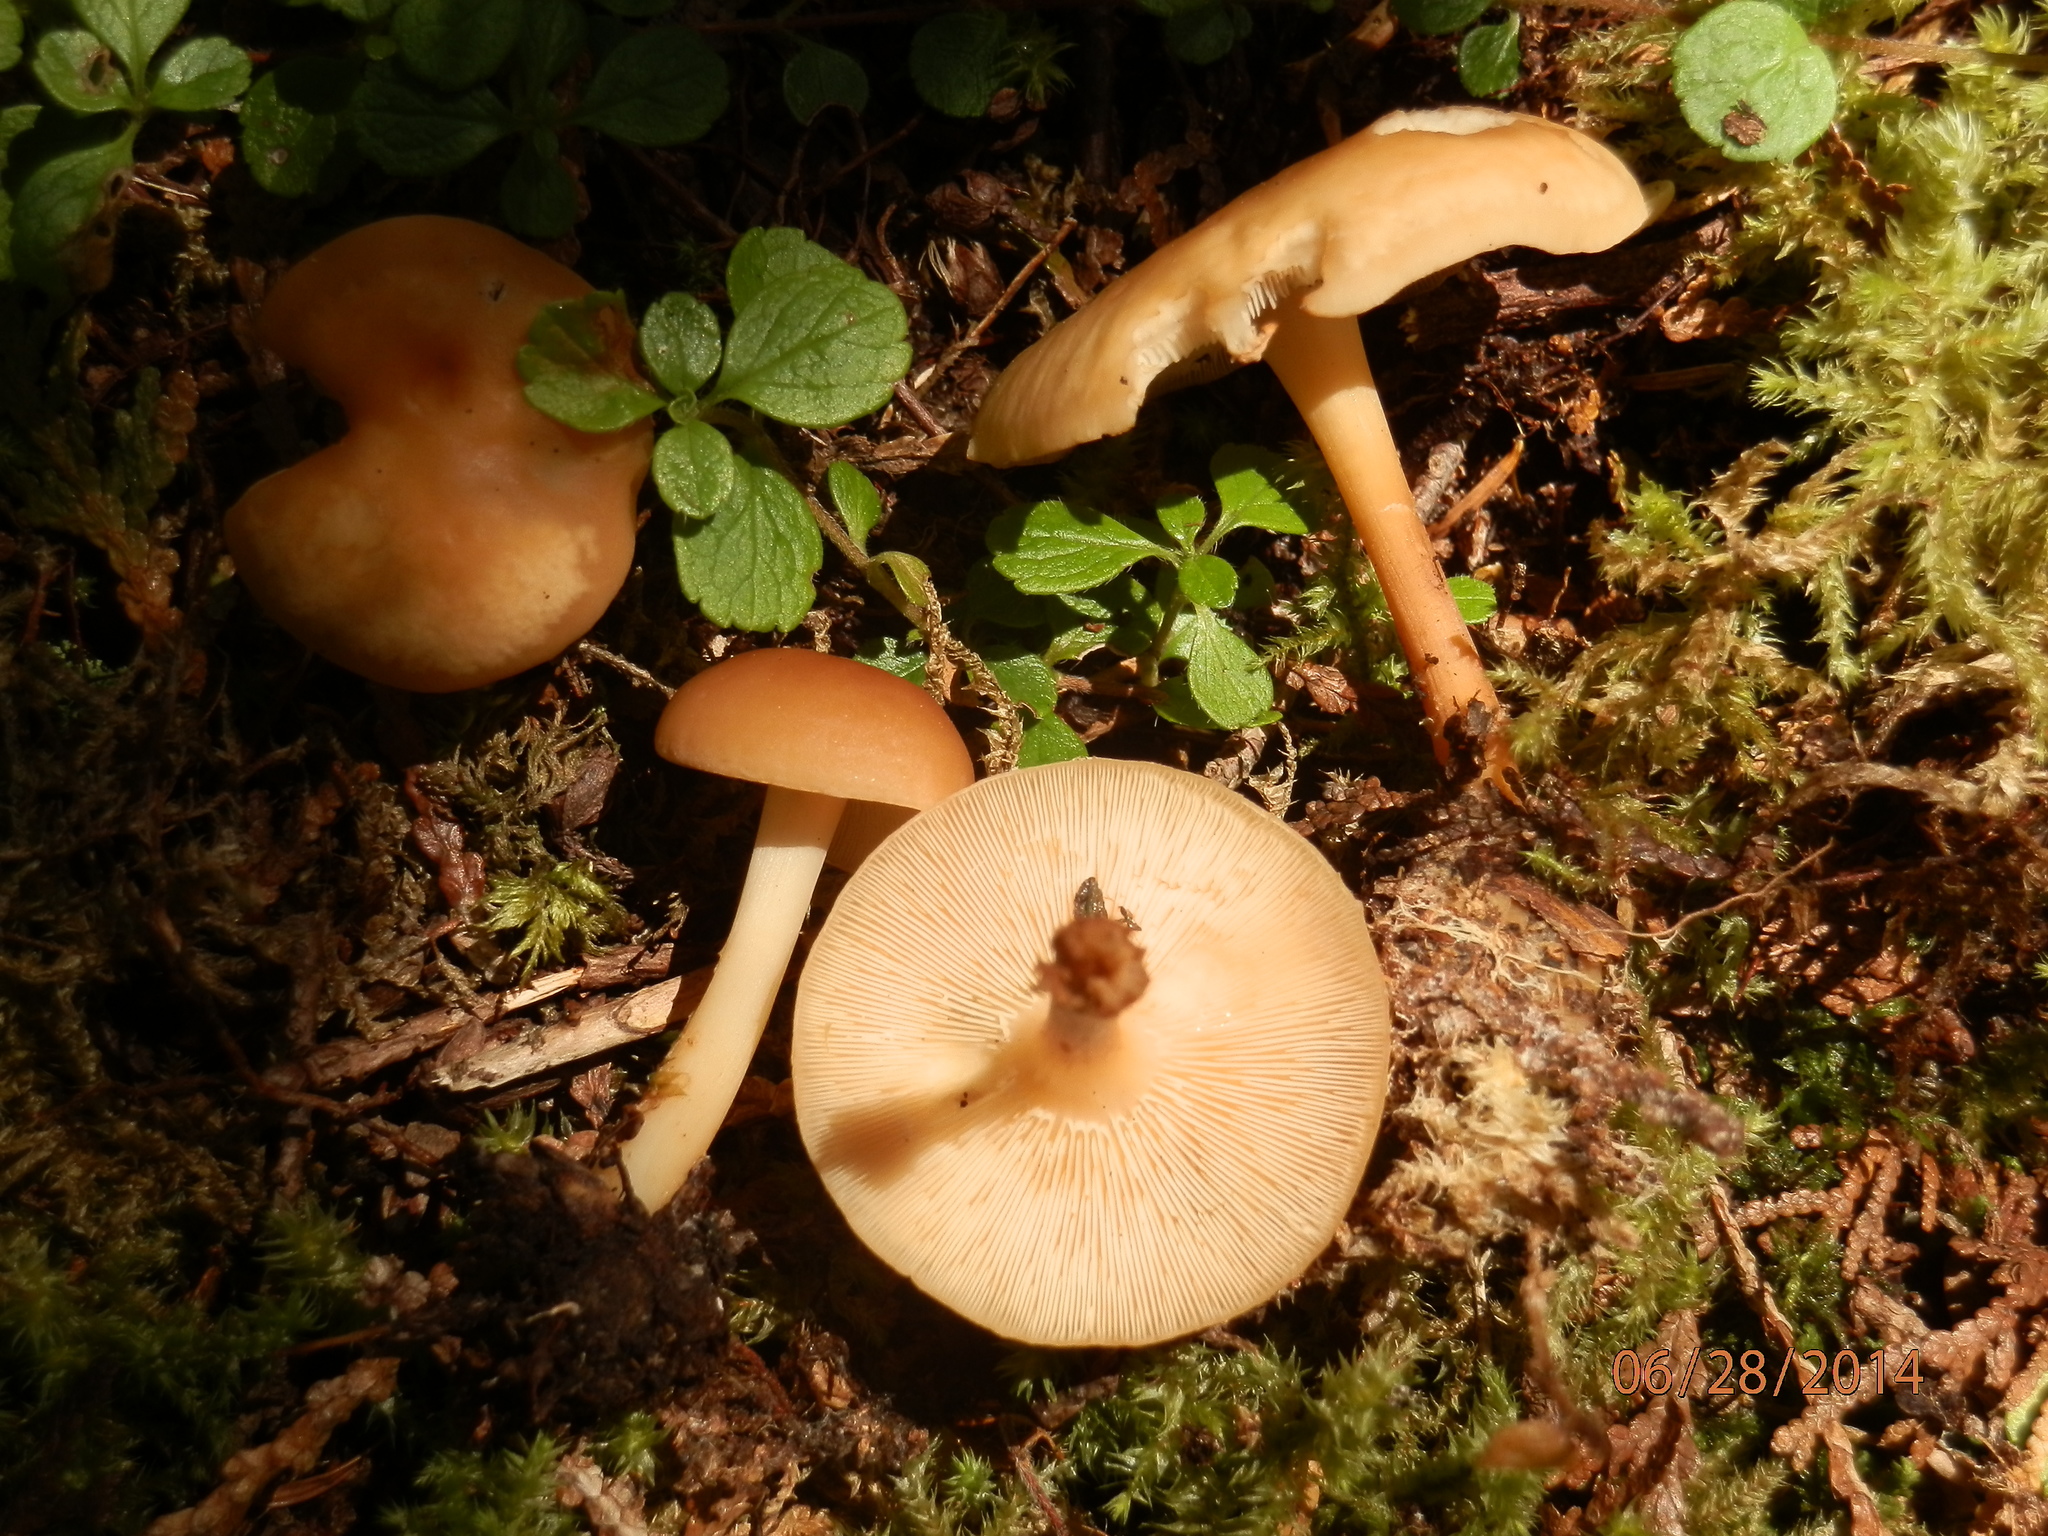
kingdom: Fungi
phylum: Basidiomycota
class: Agaricomycetes
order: Agaricales
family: Omphalotaceae
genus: Gymnopus
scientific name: Gymnopus dryophilus
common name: Penny top
